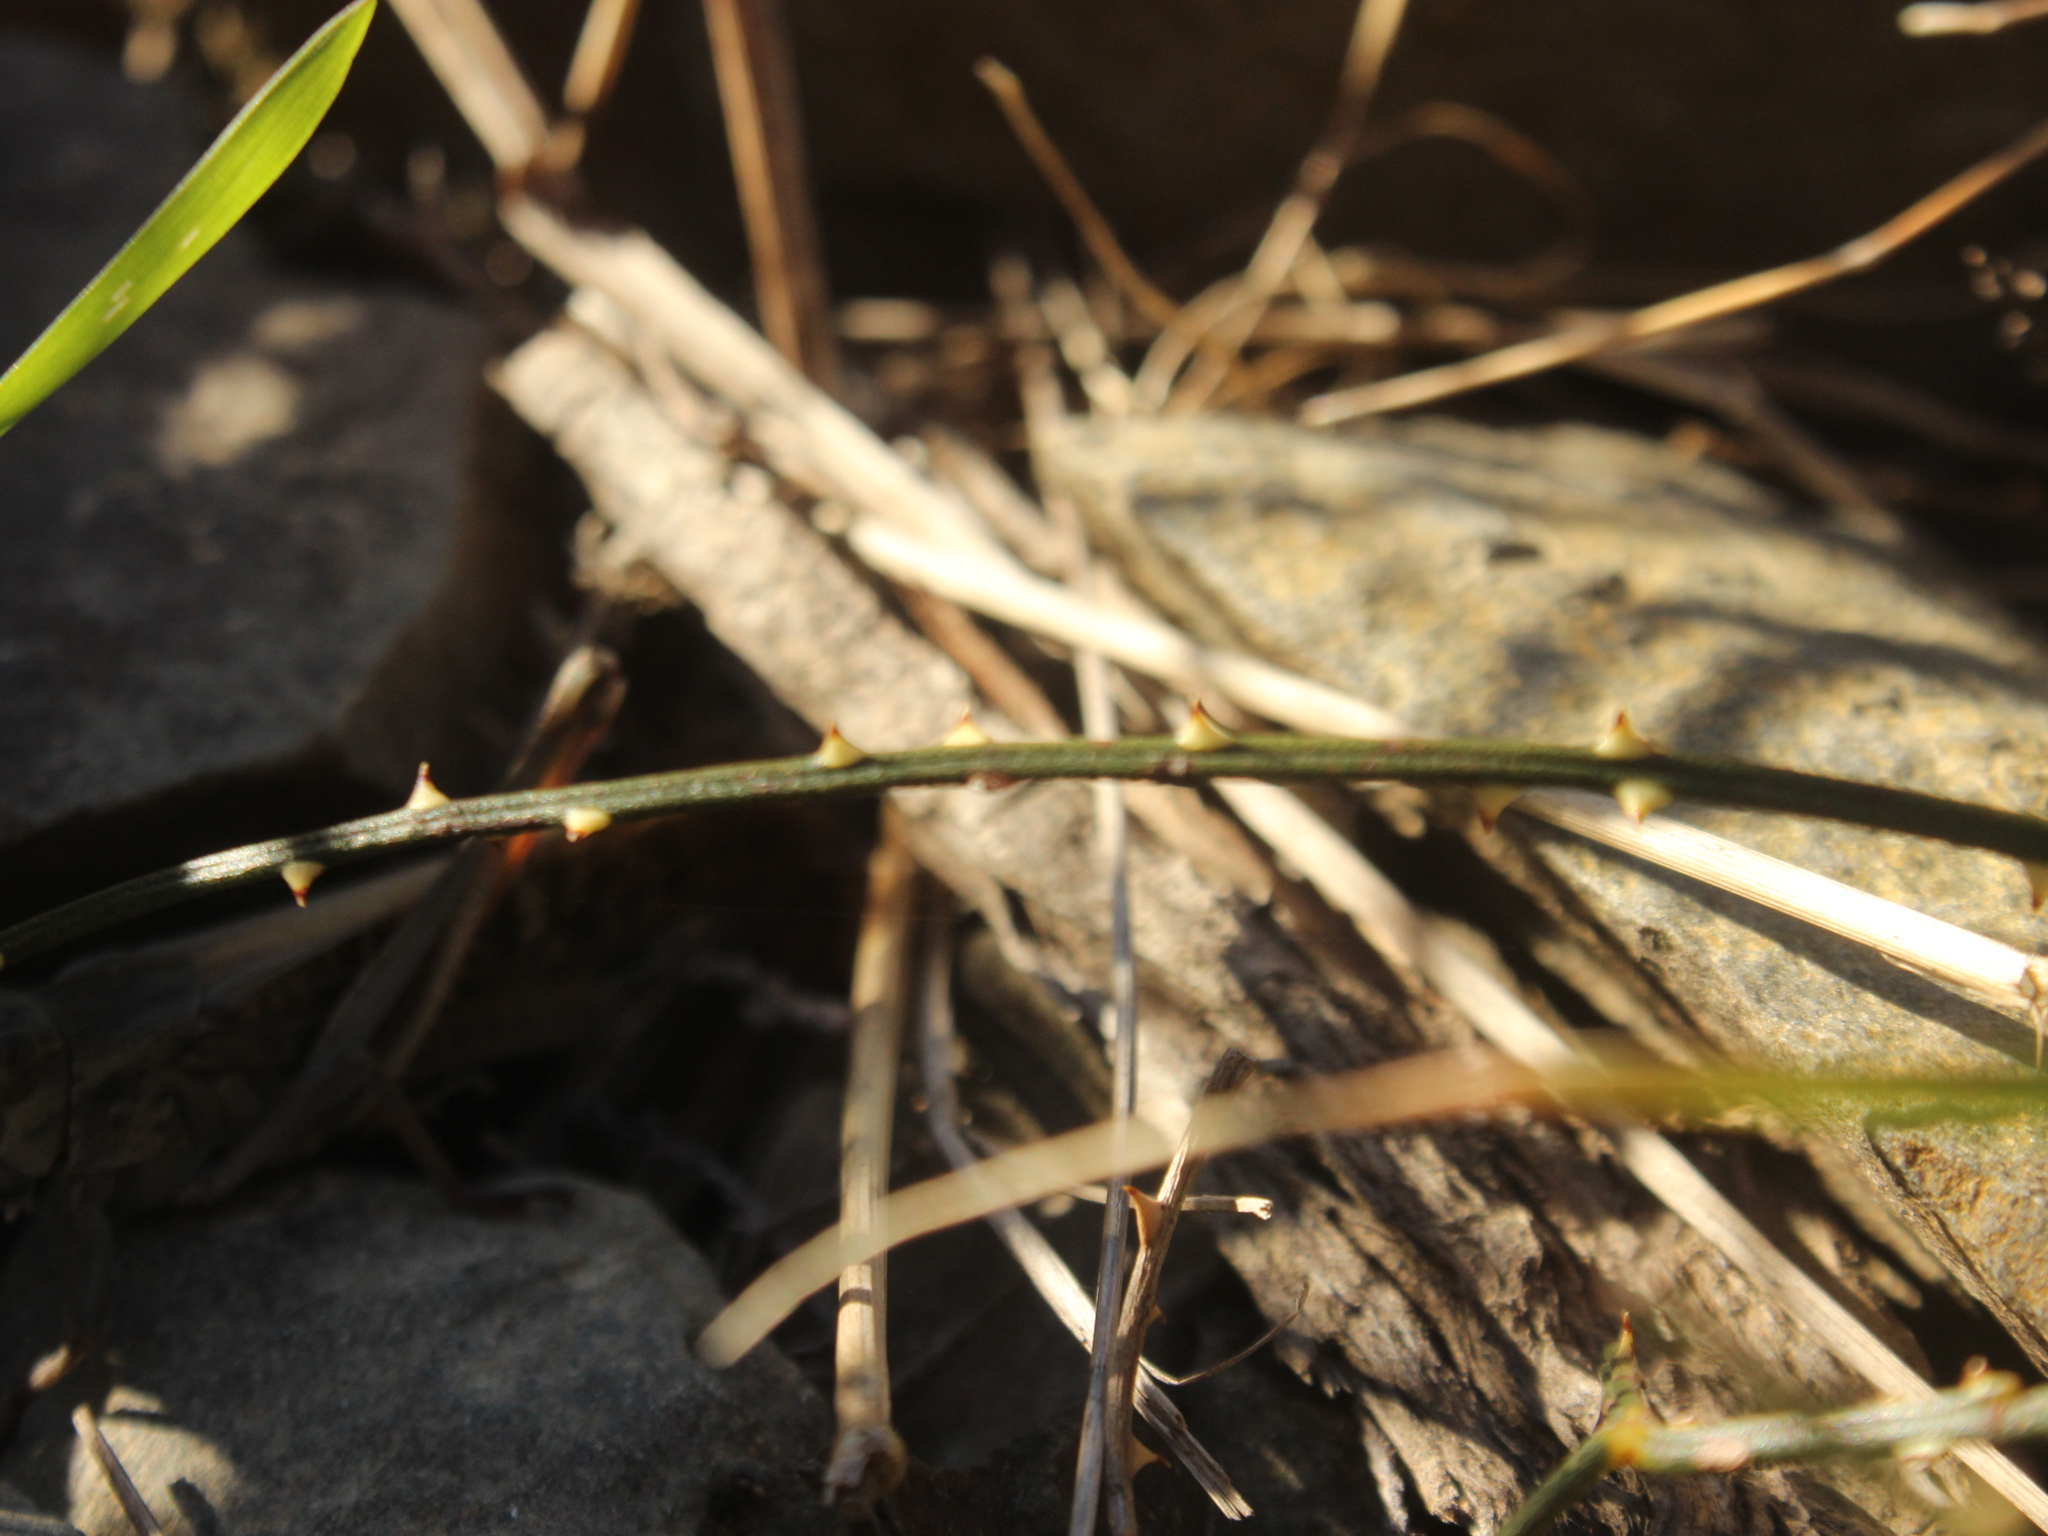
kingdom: Plantae
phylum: Tracheophyta
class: Magnoliopsida
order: Rosales
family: Rosaceae
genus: Rubus
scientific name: Rubus squarrosus
